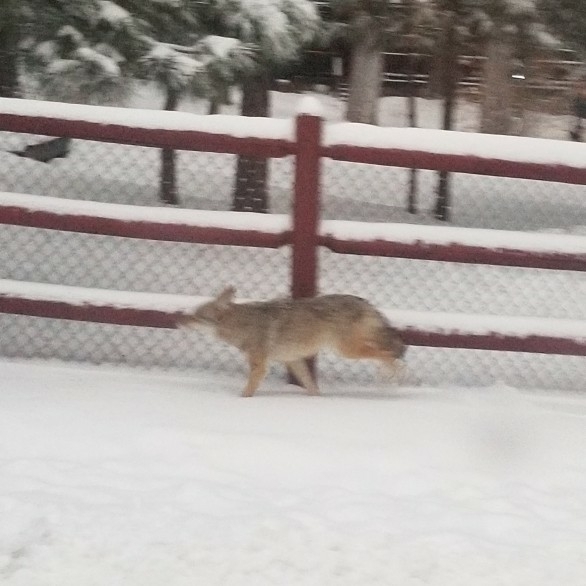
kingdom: Animalia
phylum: Chordata
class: Mammalia
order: Carnivora
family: Canidae
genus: Canis
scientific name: Canis latrans
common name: Coyote
